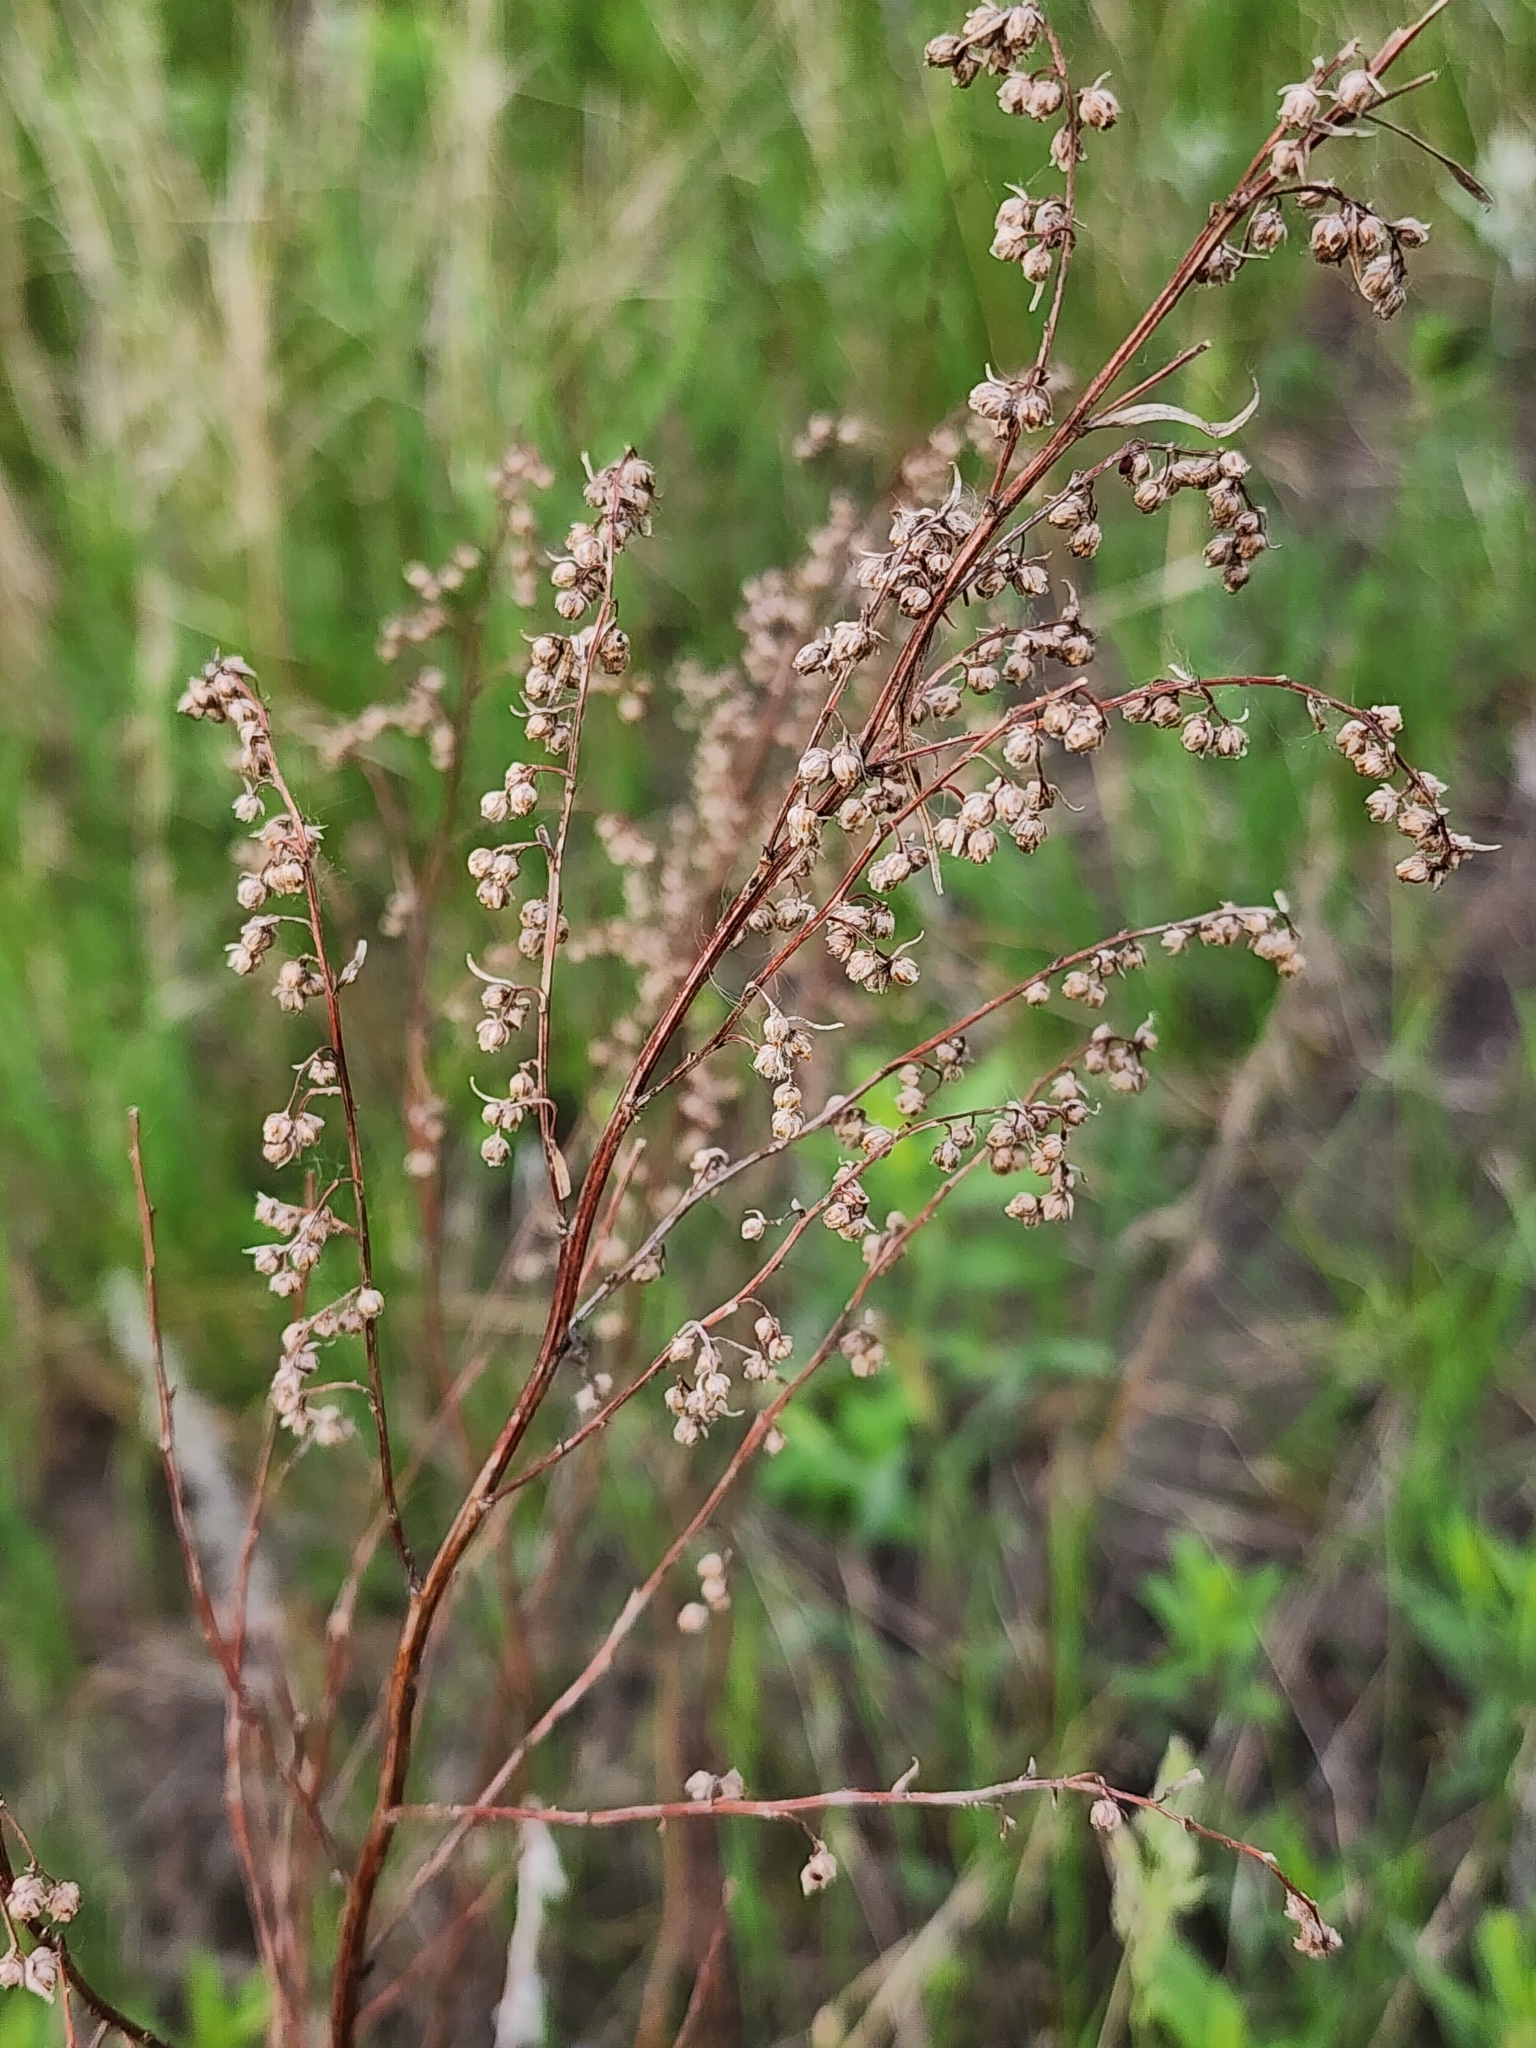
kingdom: Plantae
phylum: Tracheophyta
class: Magnoliopsida
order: Asterales
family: Asteraceae
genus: Artemisia
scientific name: Artemisia campestris
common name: Field wormwood
